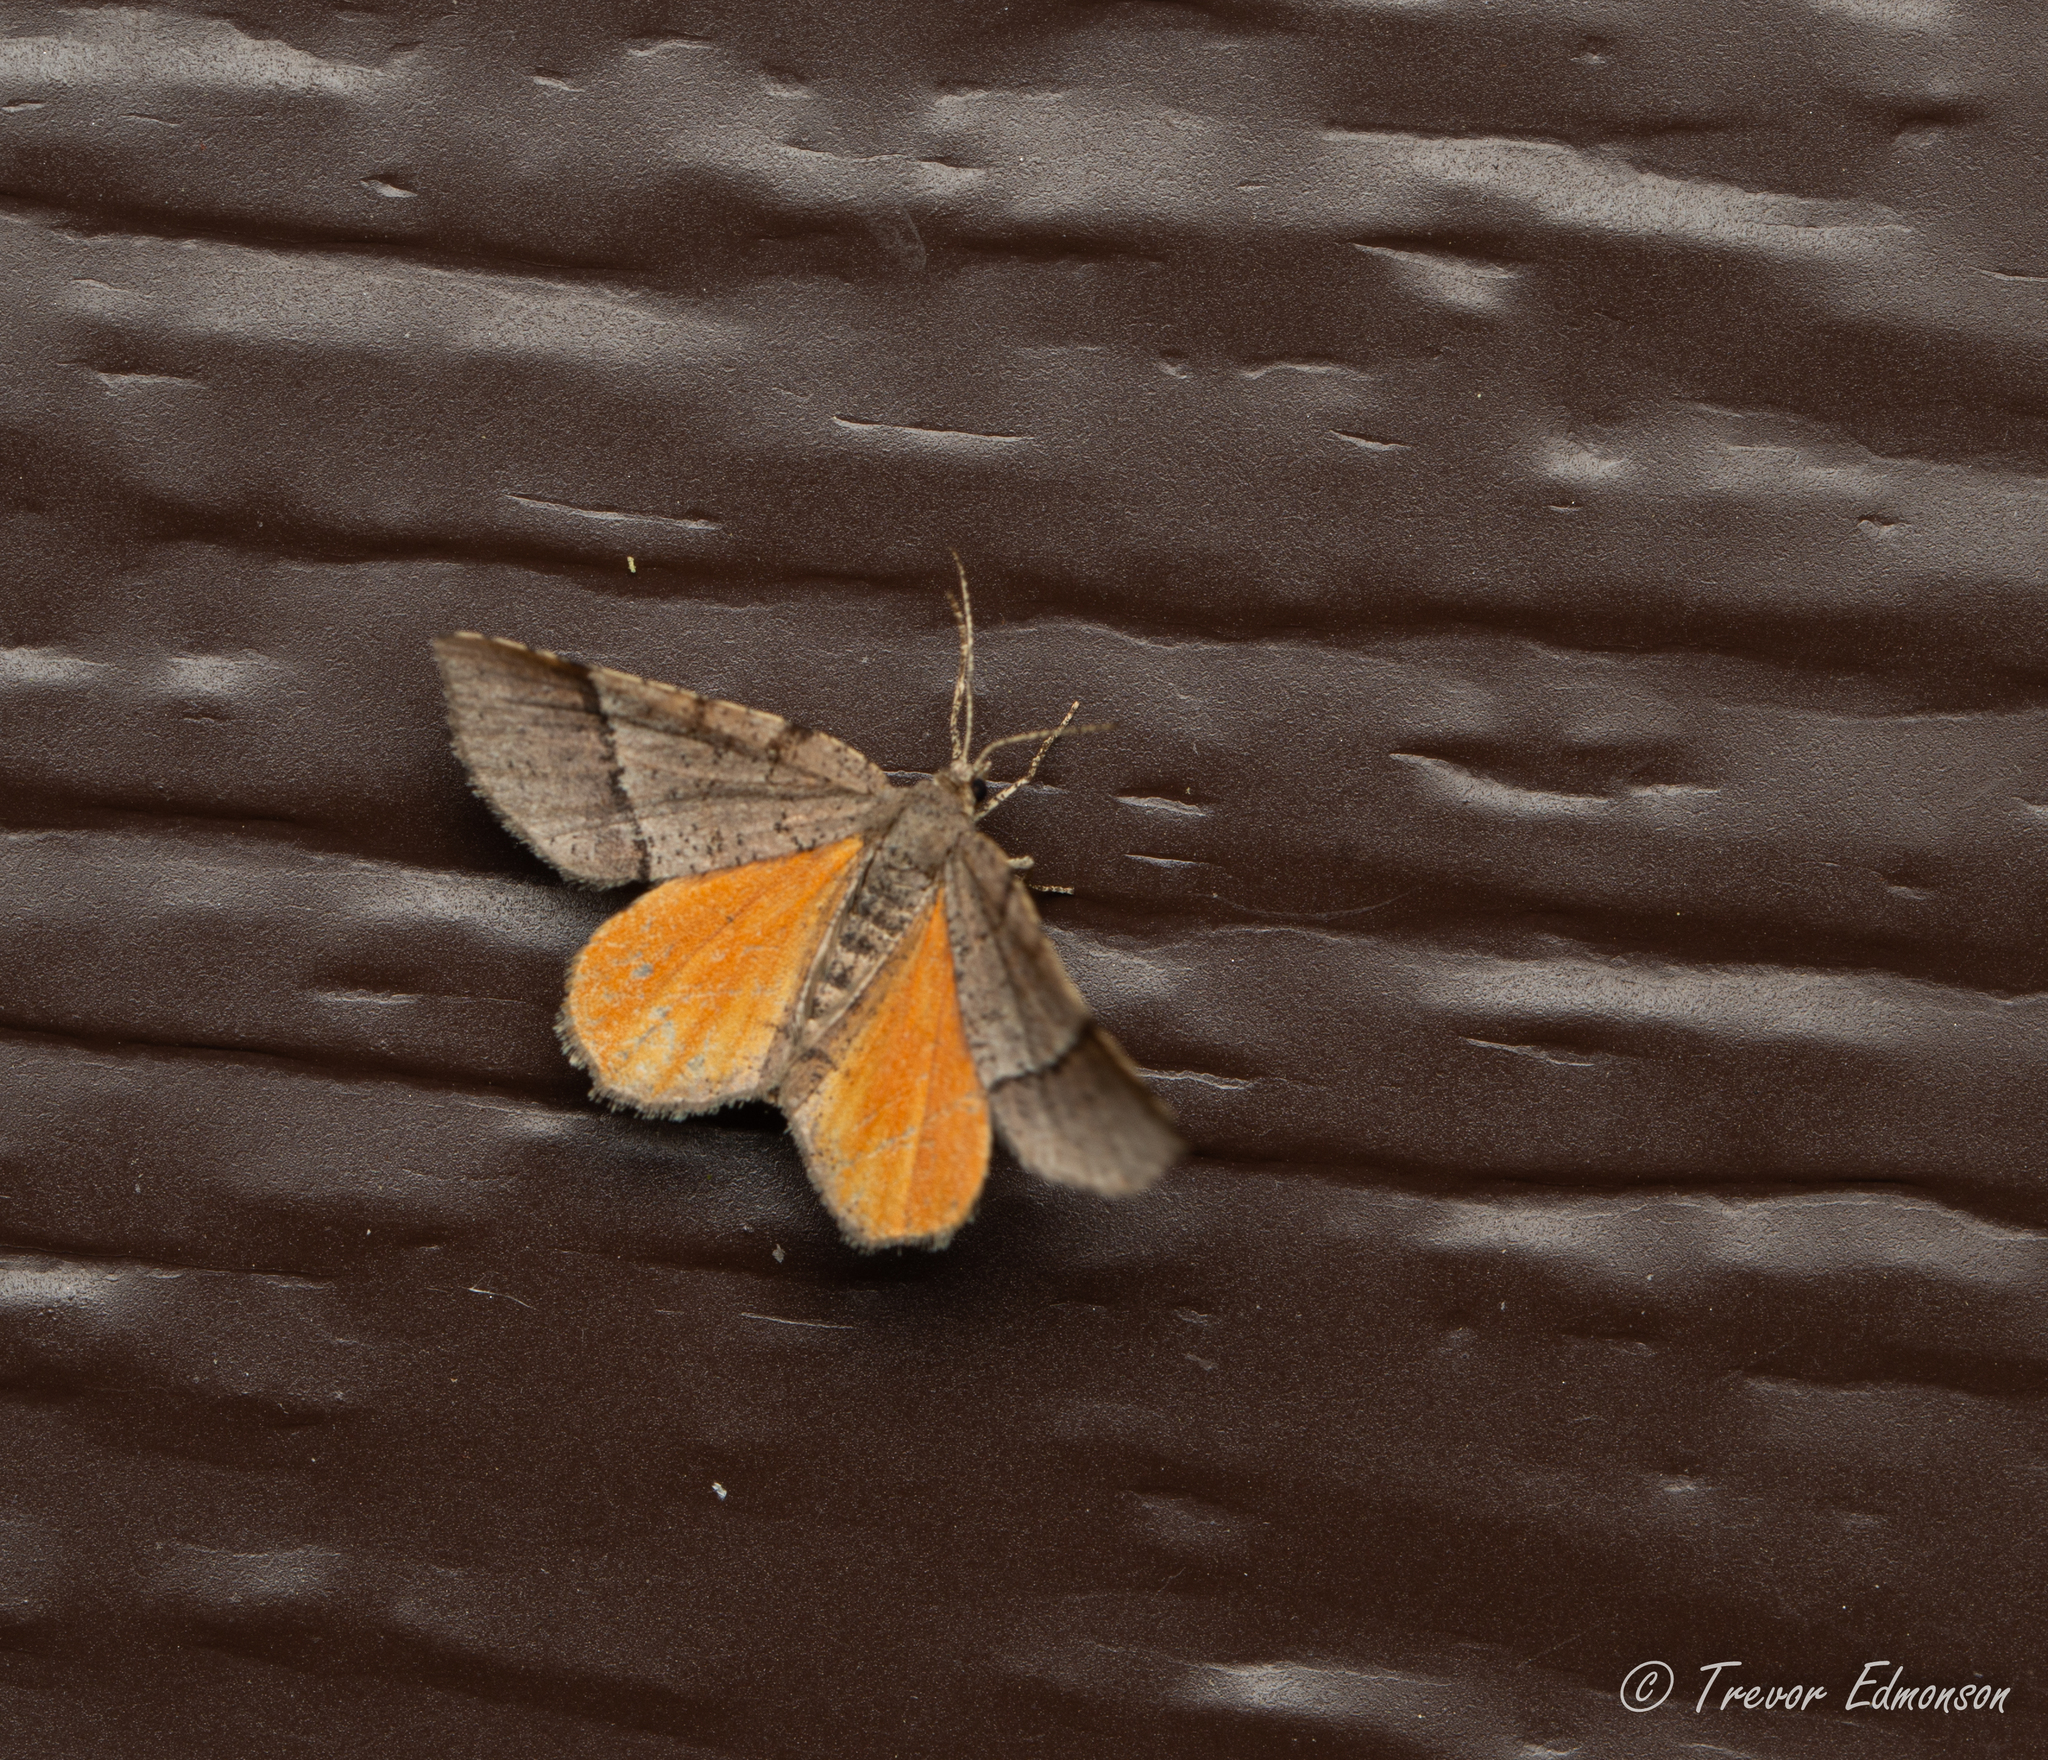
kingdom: Animalia
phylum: Arthropoda
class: Insecta
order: Lepidoptera
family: Geometridae
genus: Mellilla
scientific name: Mellilla xanthometata
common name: Orange wing moth
